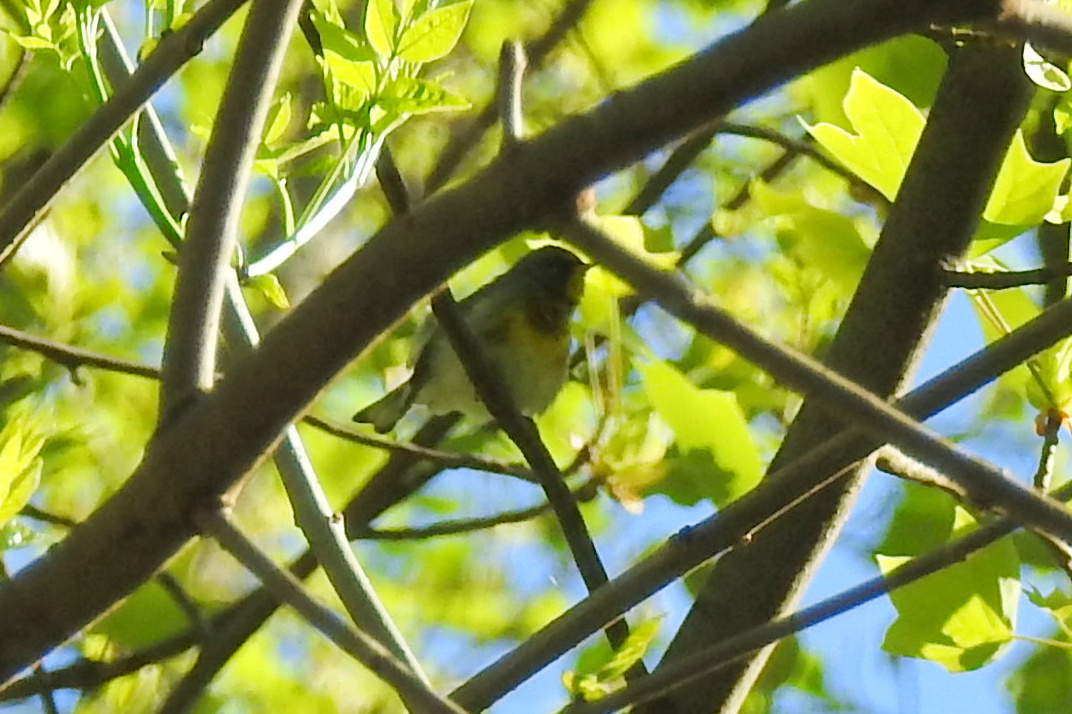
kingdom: Animalia
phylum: Chordata
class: Aves
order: Passeriformes
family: Parulidae
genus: Setophaga
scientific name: Setophaga americana
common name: Northern parula
